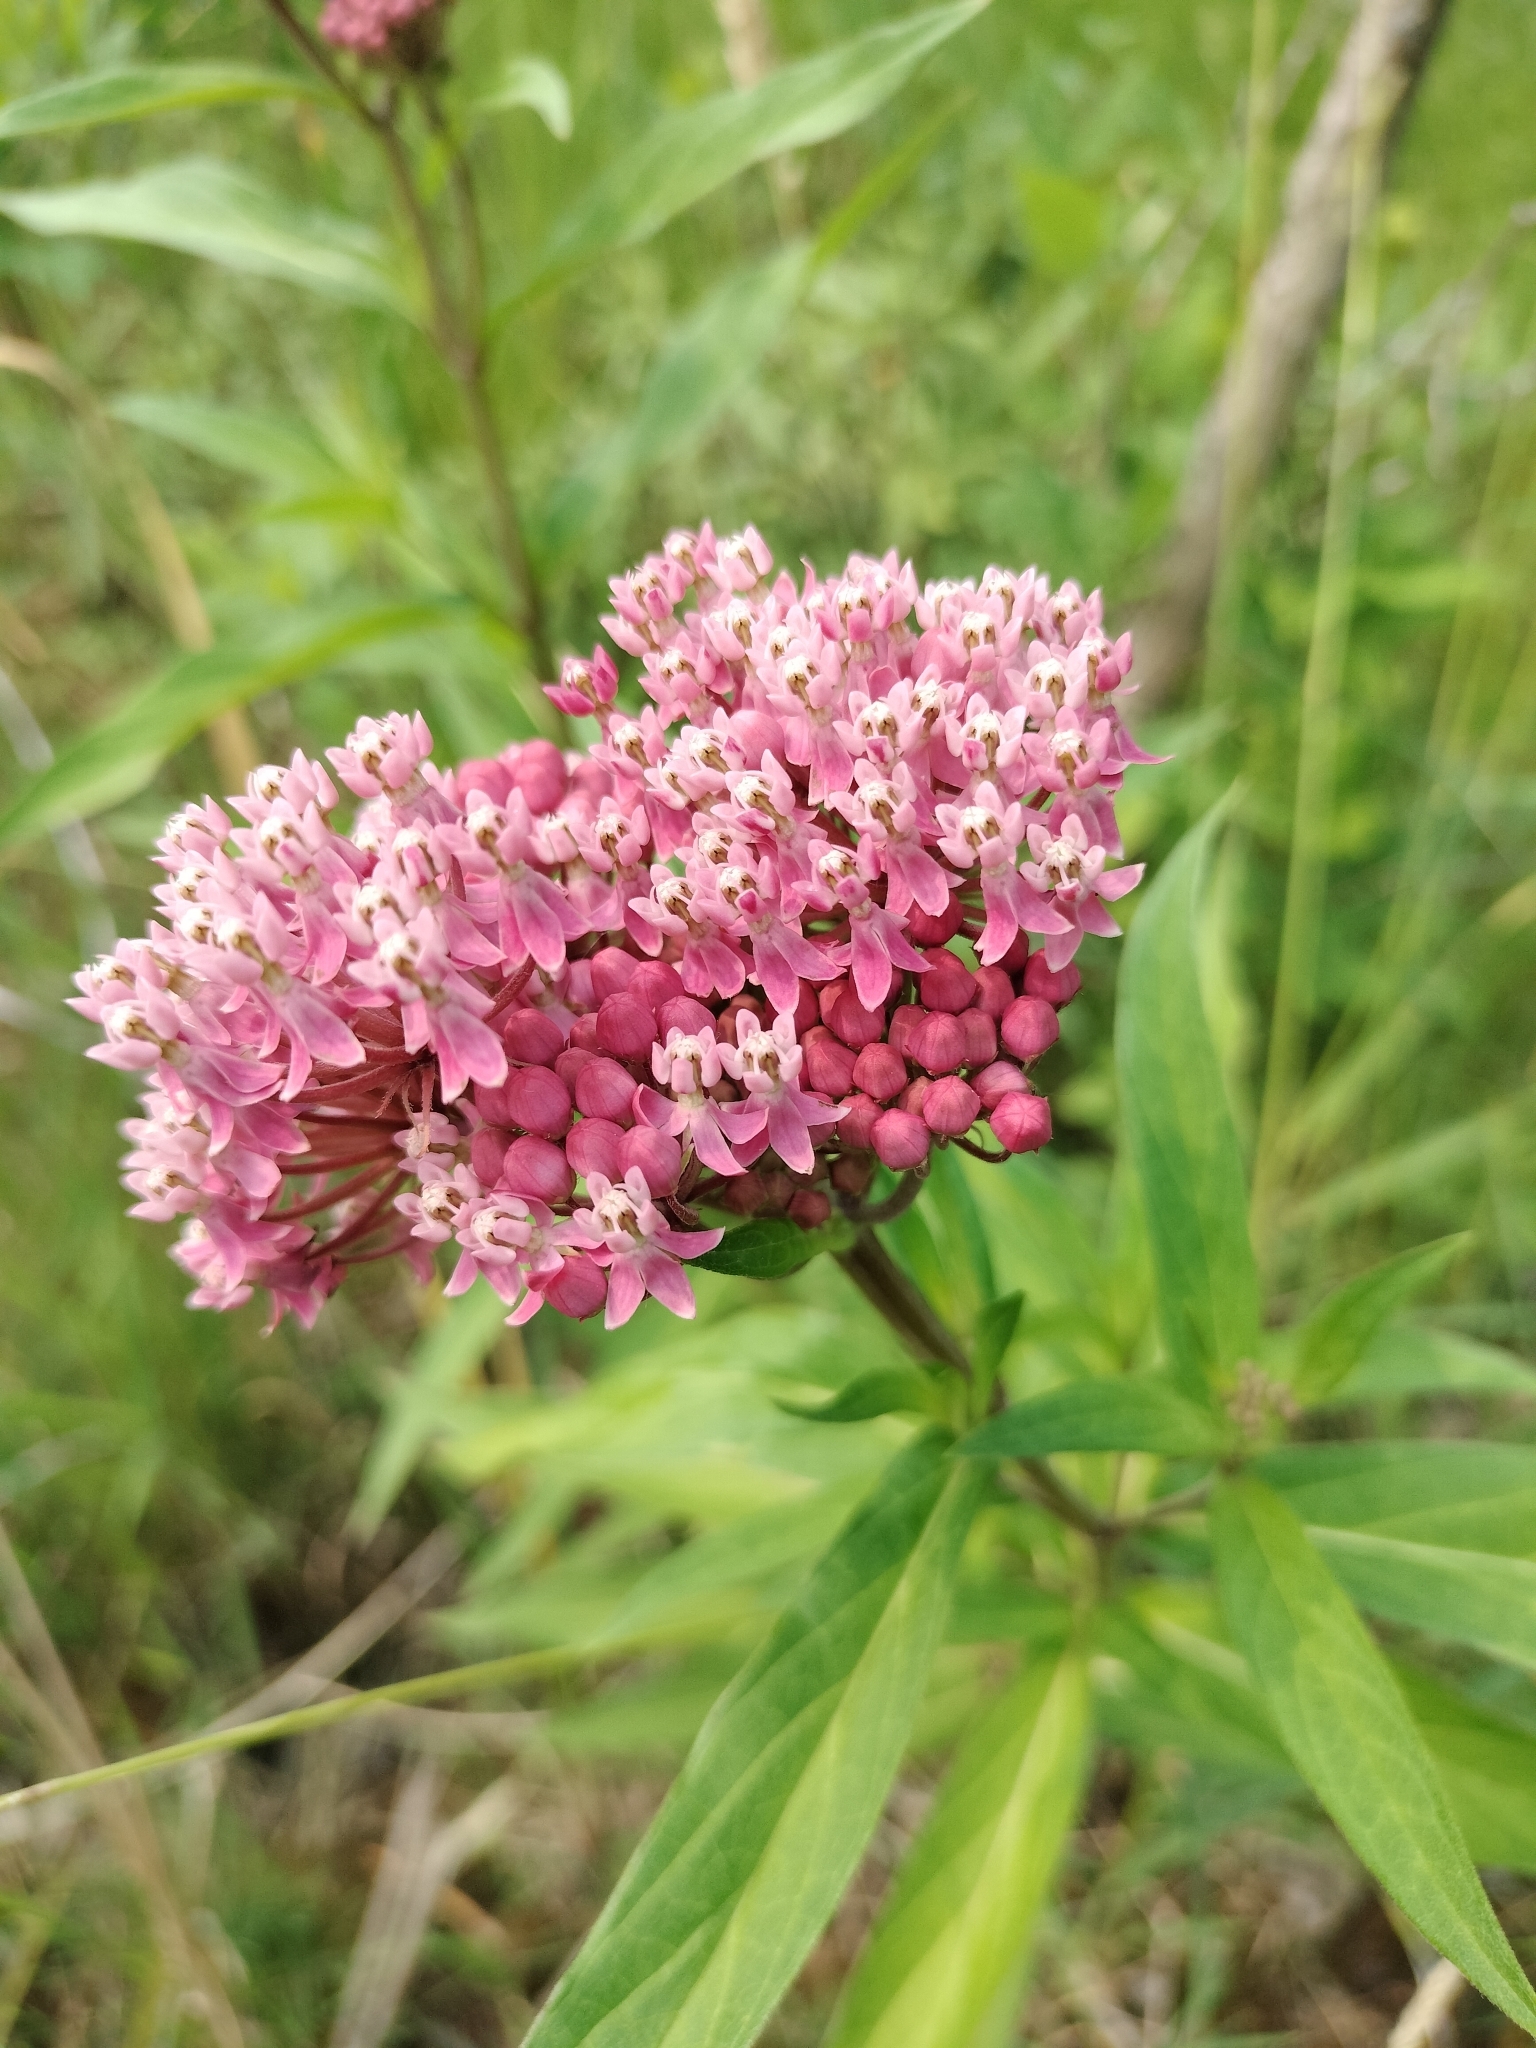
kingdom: Plantae
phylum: Tracheophyta
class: Magnoliopsida
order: Gentianales
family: Apocynaceae
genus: Asclepias
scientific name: Asclepias incarnata
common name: Swamp milkweed
